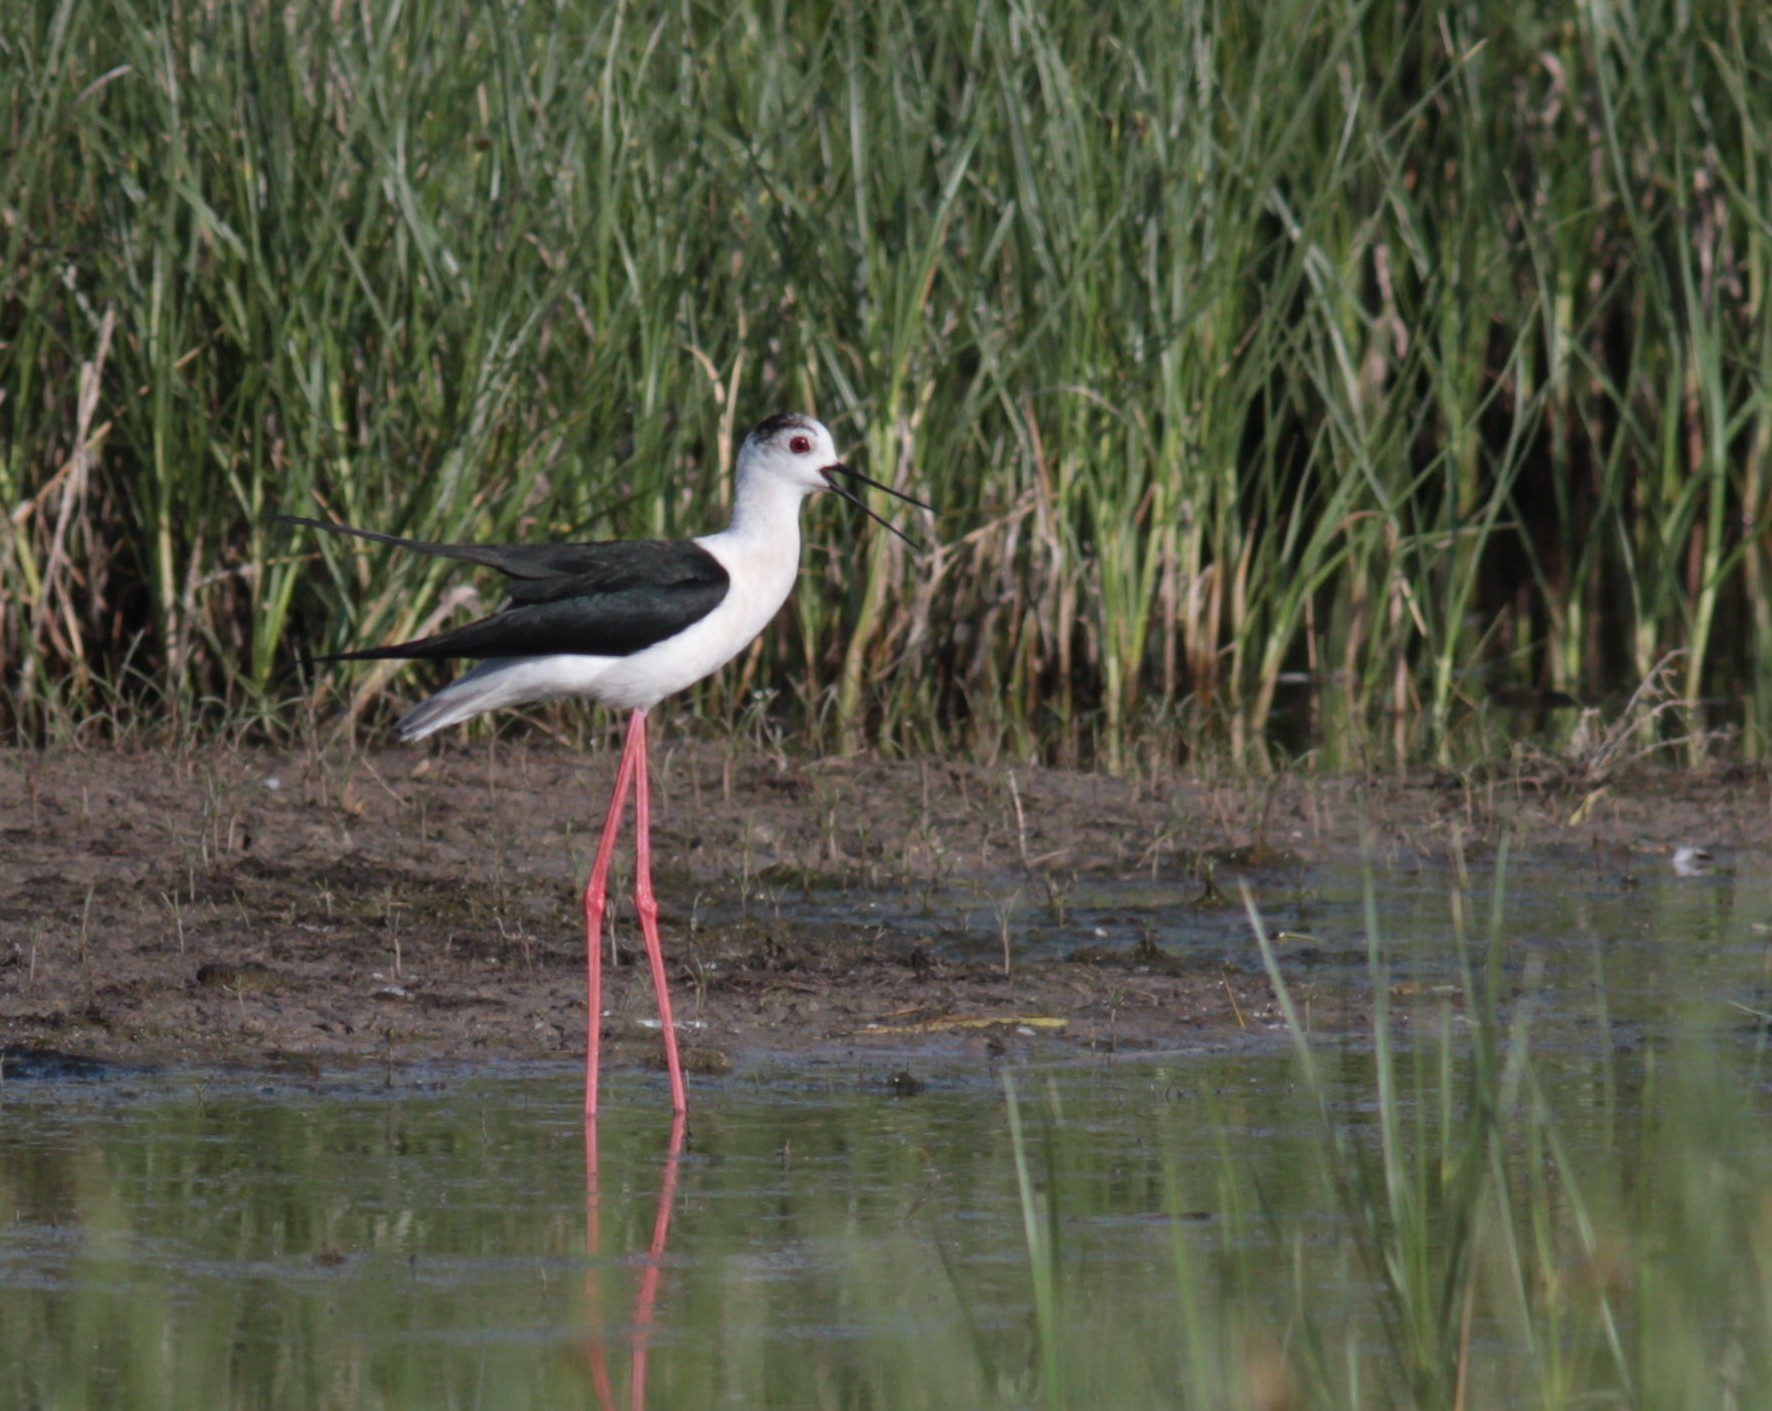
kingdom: Animalia
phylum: Chordata
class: Aves
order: Charadriiformes
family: Recurvirostridae
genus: Himantopus
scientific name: Himantopus himantopus
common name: Black-winged stilt
